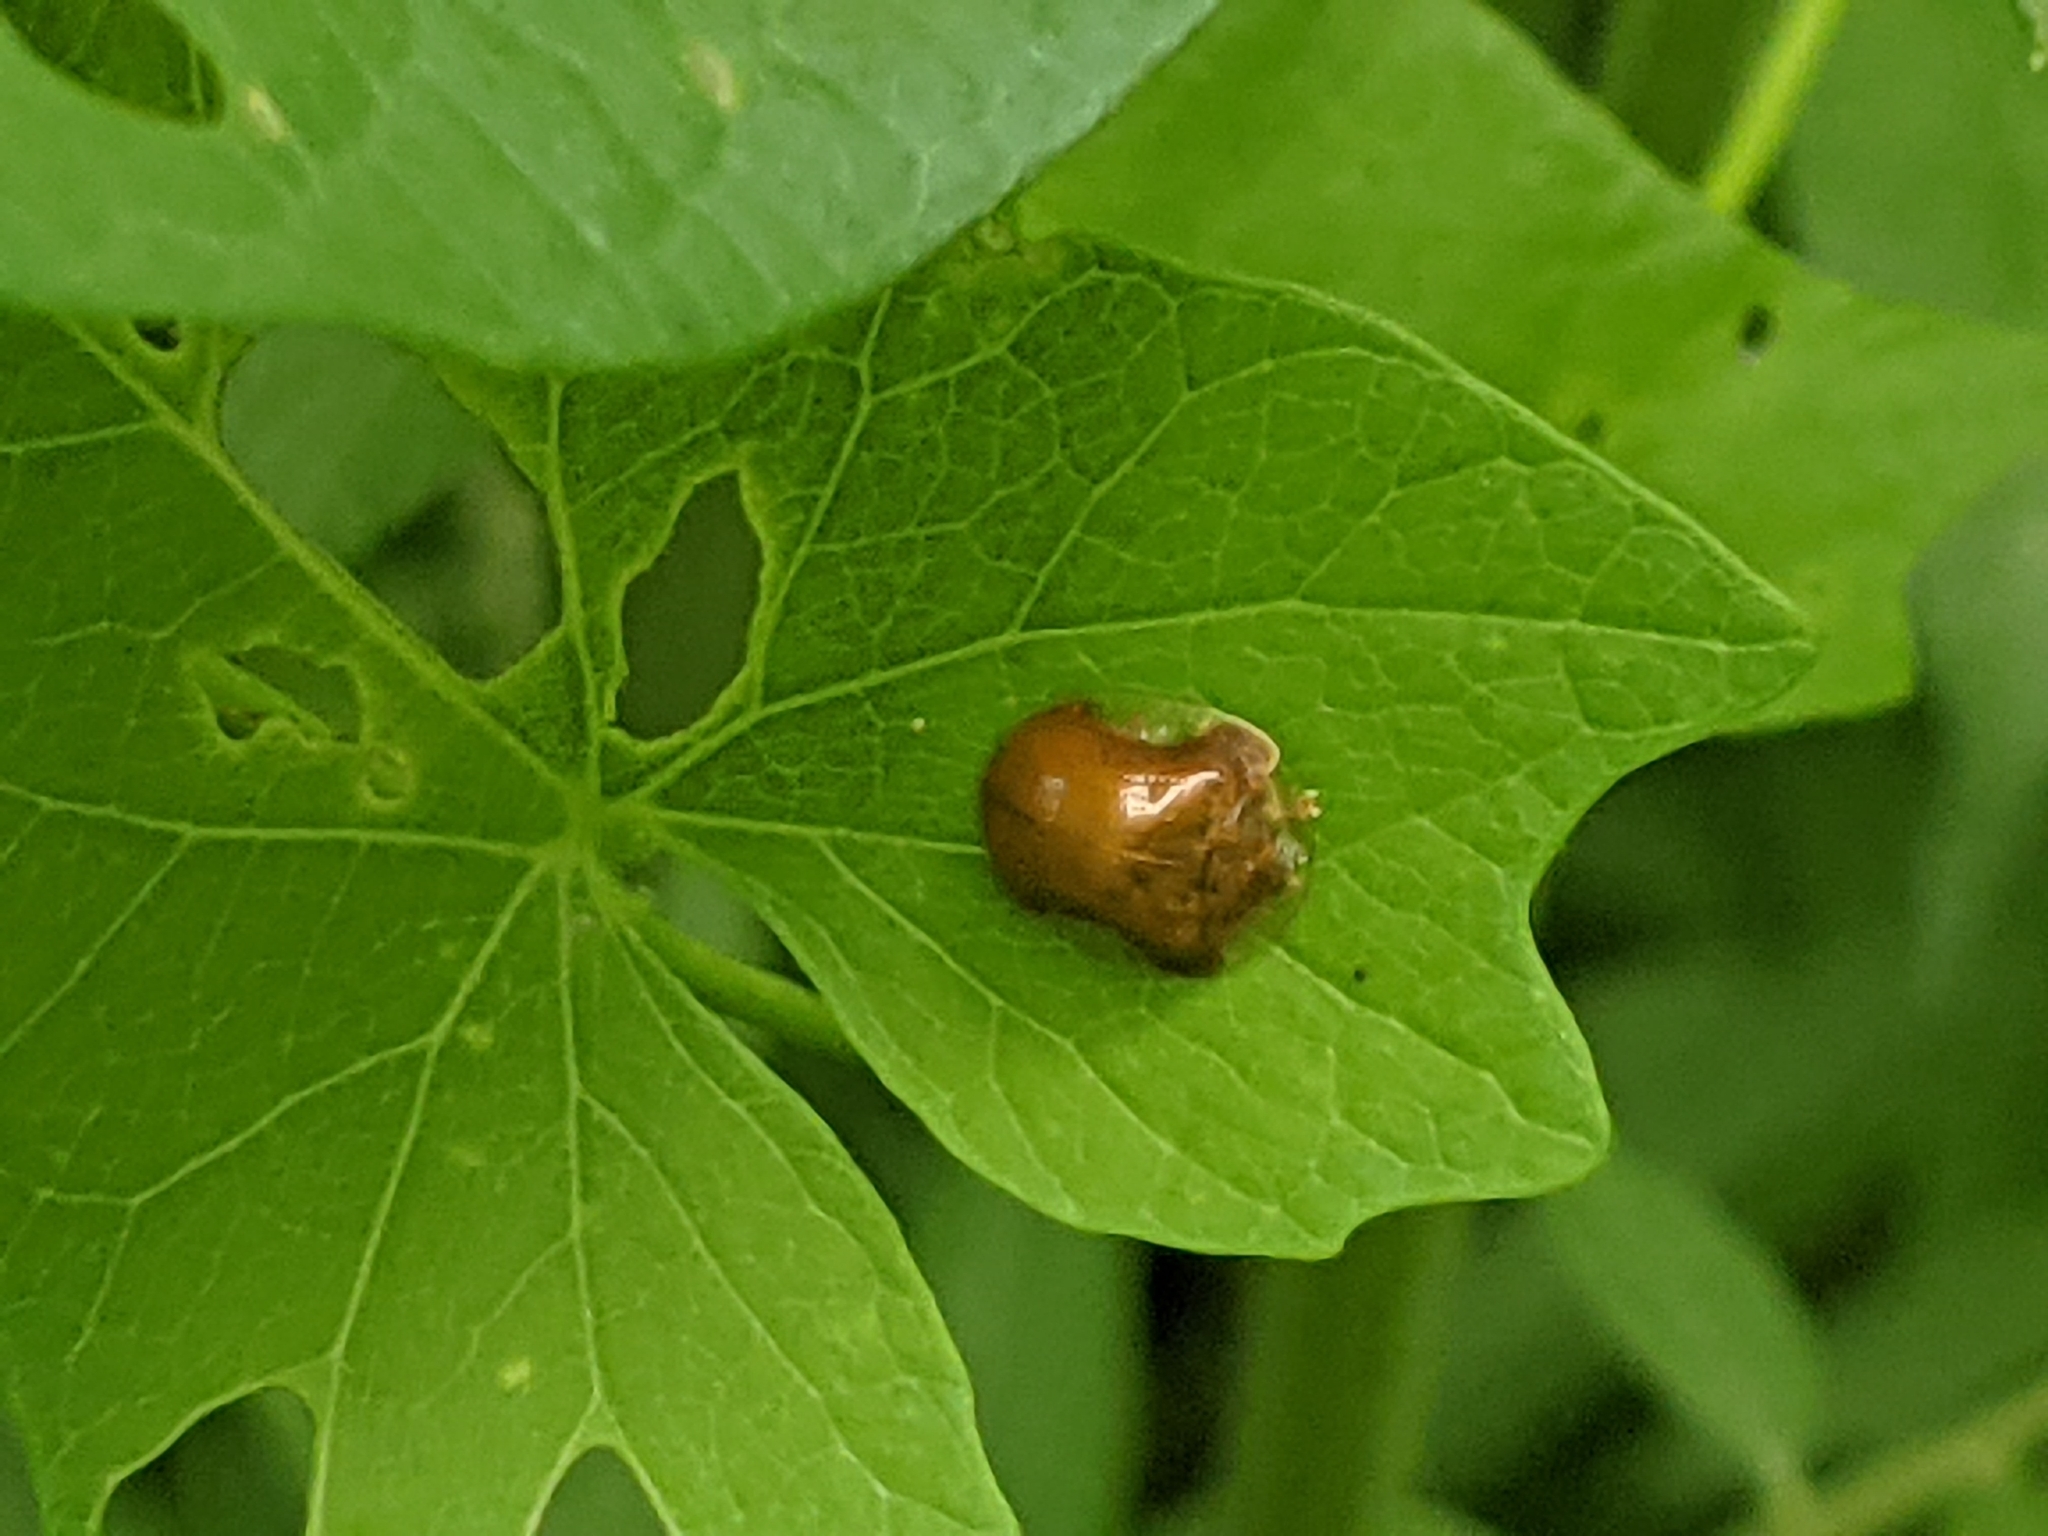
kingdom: Animalia
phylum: Arthropoda
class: Insecta
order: Coleoptera
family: Chrysomelidae
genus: Charidotella
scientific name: Charidotella purpurata
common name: Small orange tortoise beetle
